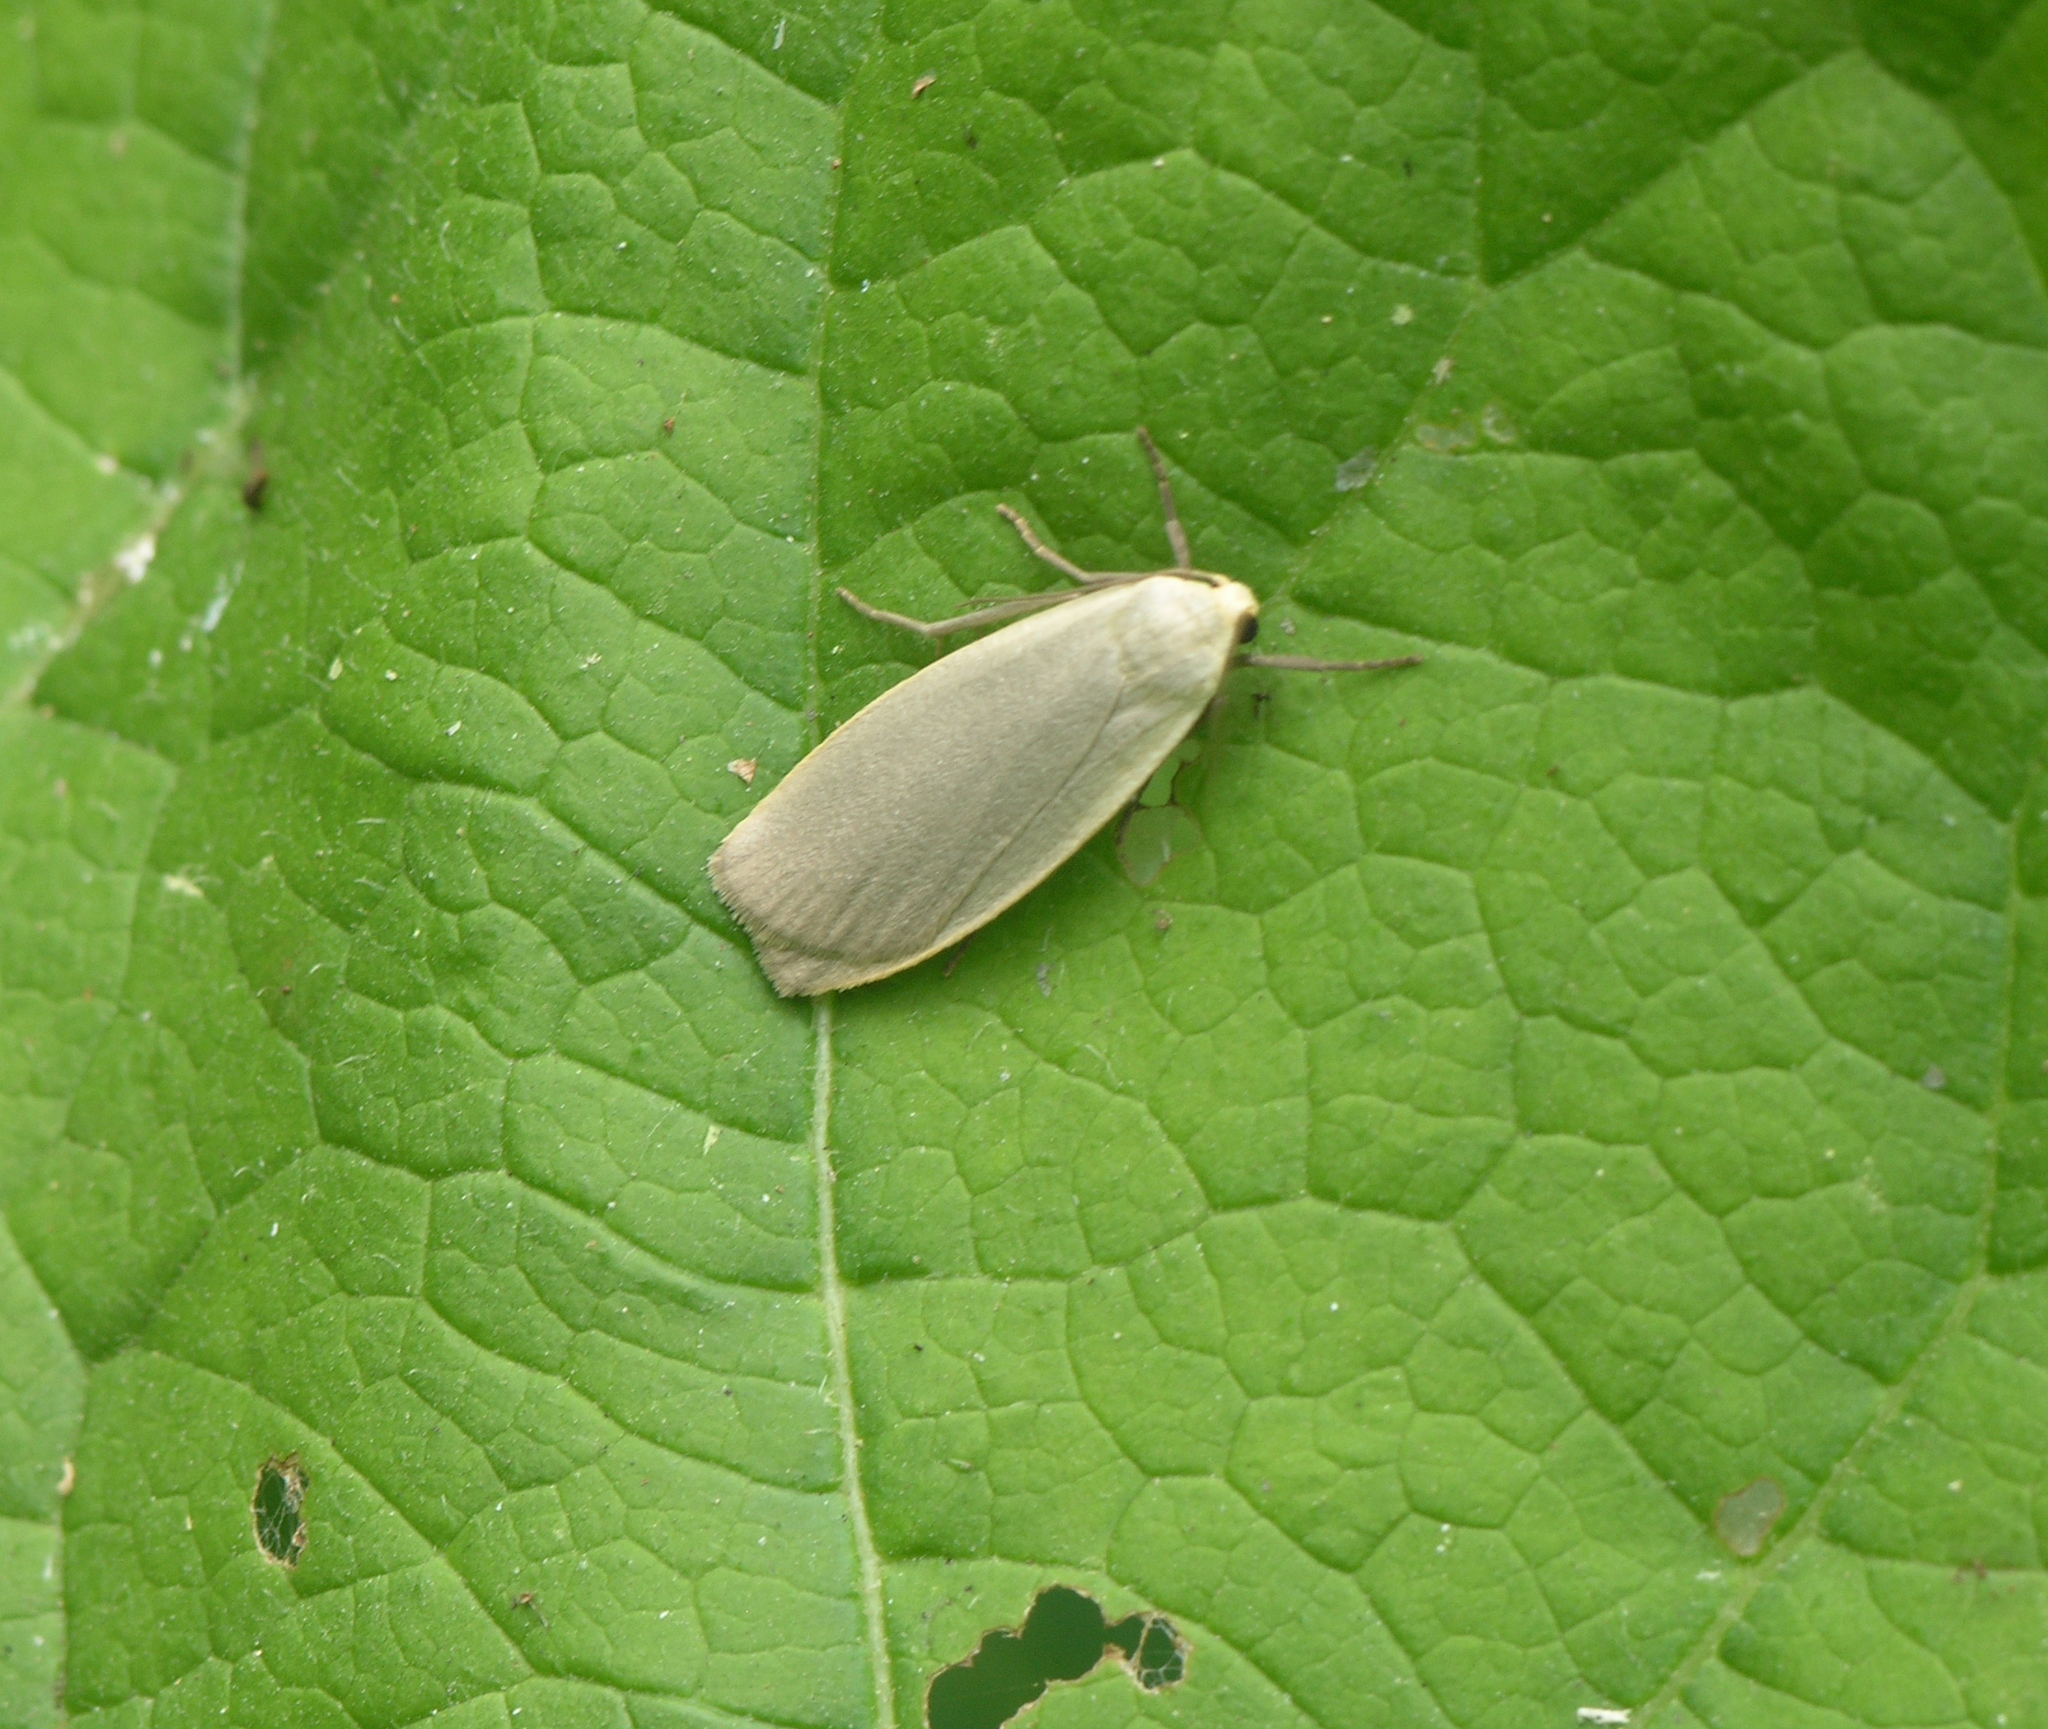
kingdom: Animalia
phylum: Arthropoda
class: Insecta
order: Lepidoptera
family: Erebidae
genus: Collita
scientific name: Collita griseola
